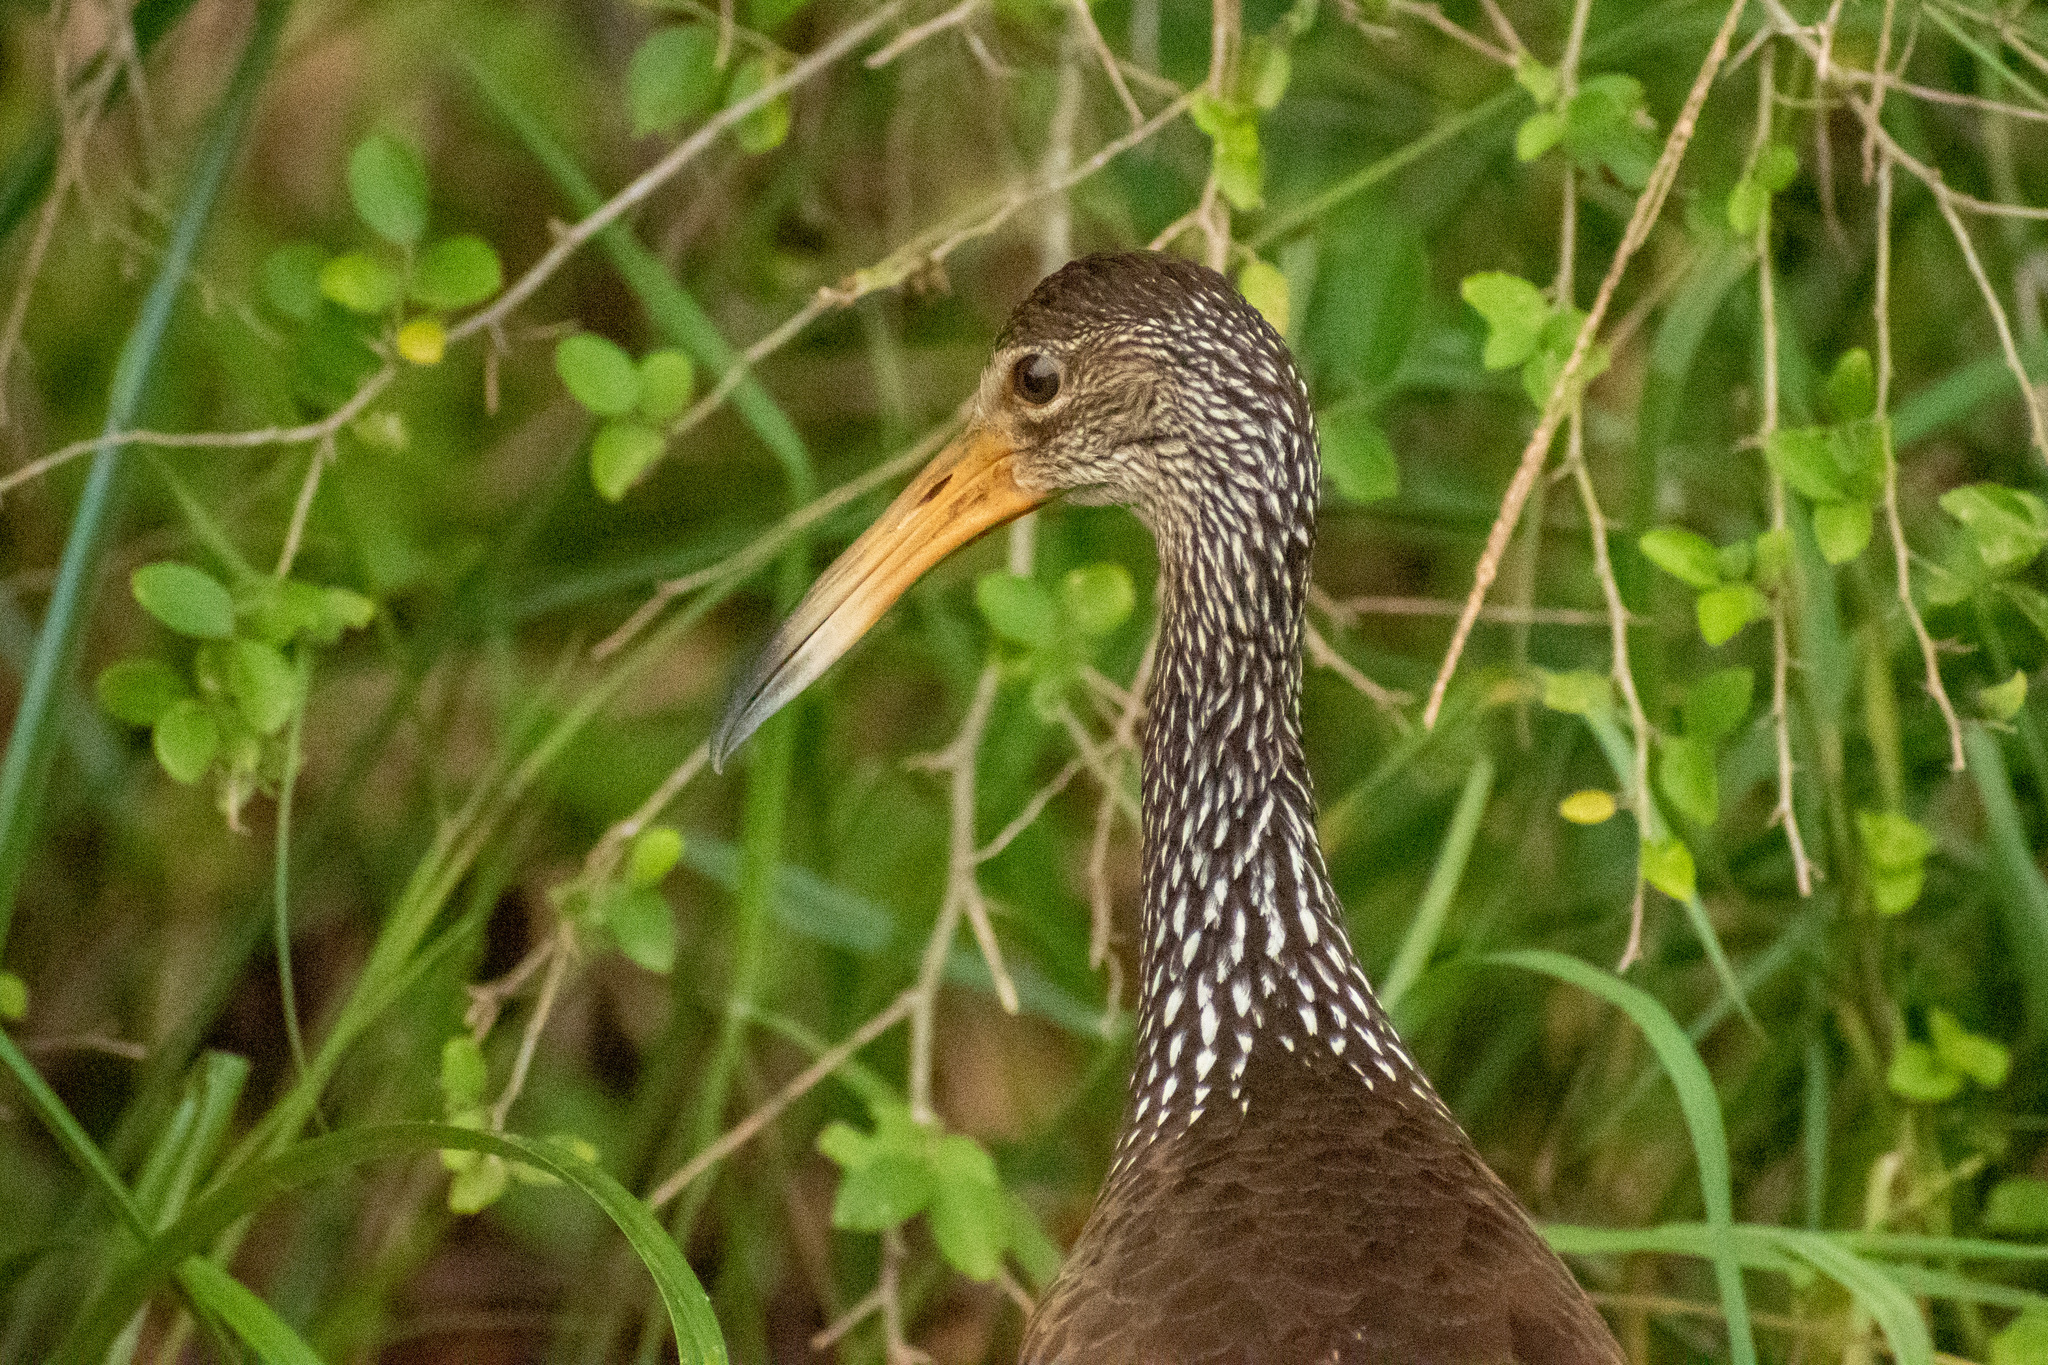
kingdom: Animalia
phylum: Chordata
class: Aves
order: Gruiformes
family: Aramidae
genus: Aramus
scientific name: Aramus guarauna
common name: Limpkin
